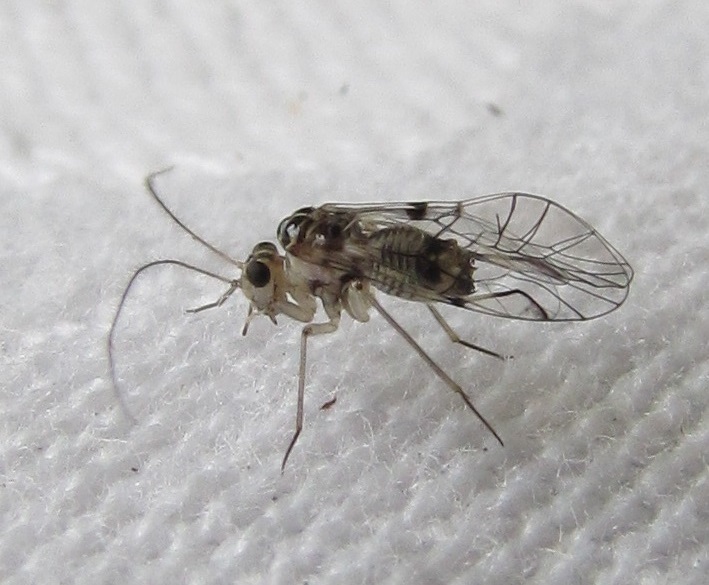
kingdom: Animalia
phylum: Arthropoda
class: Insecta
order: Psocodea
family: Dasydemellidae
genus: Teliapsocus
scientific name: Teliapsocus conterminus
